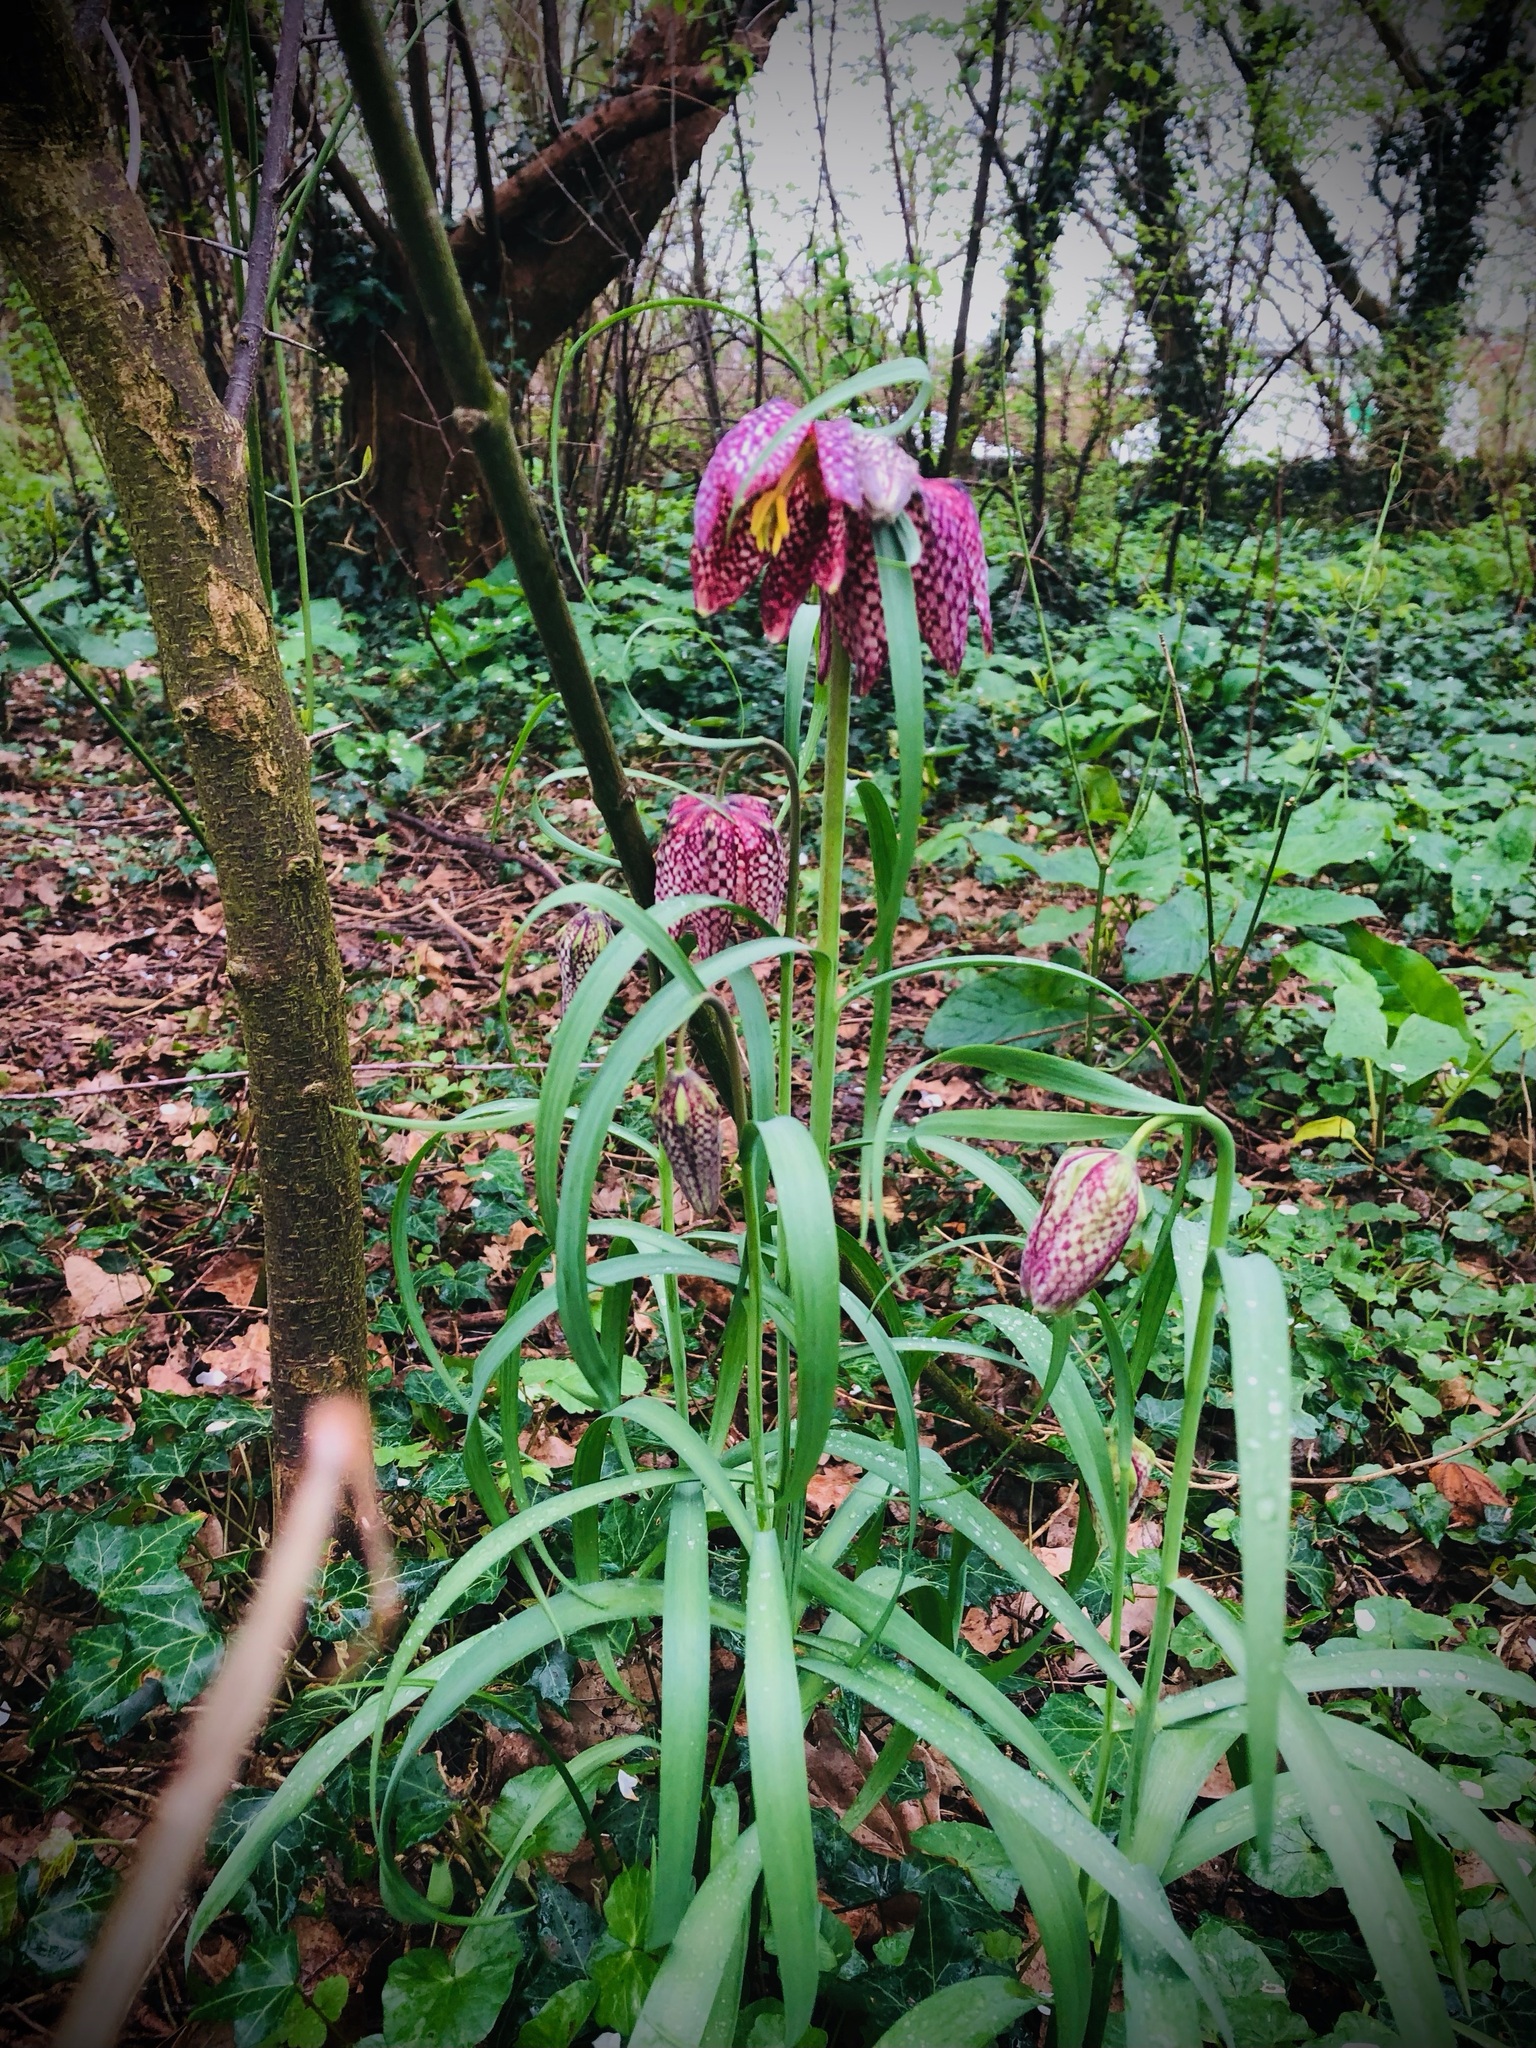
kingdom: Plantae
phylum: Tracheophyta
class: Liliopsida
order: Liliales
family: Liliaceae
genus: Fritillaria
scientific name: Fritillaria meleagris
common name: Fritillary
